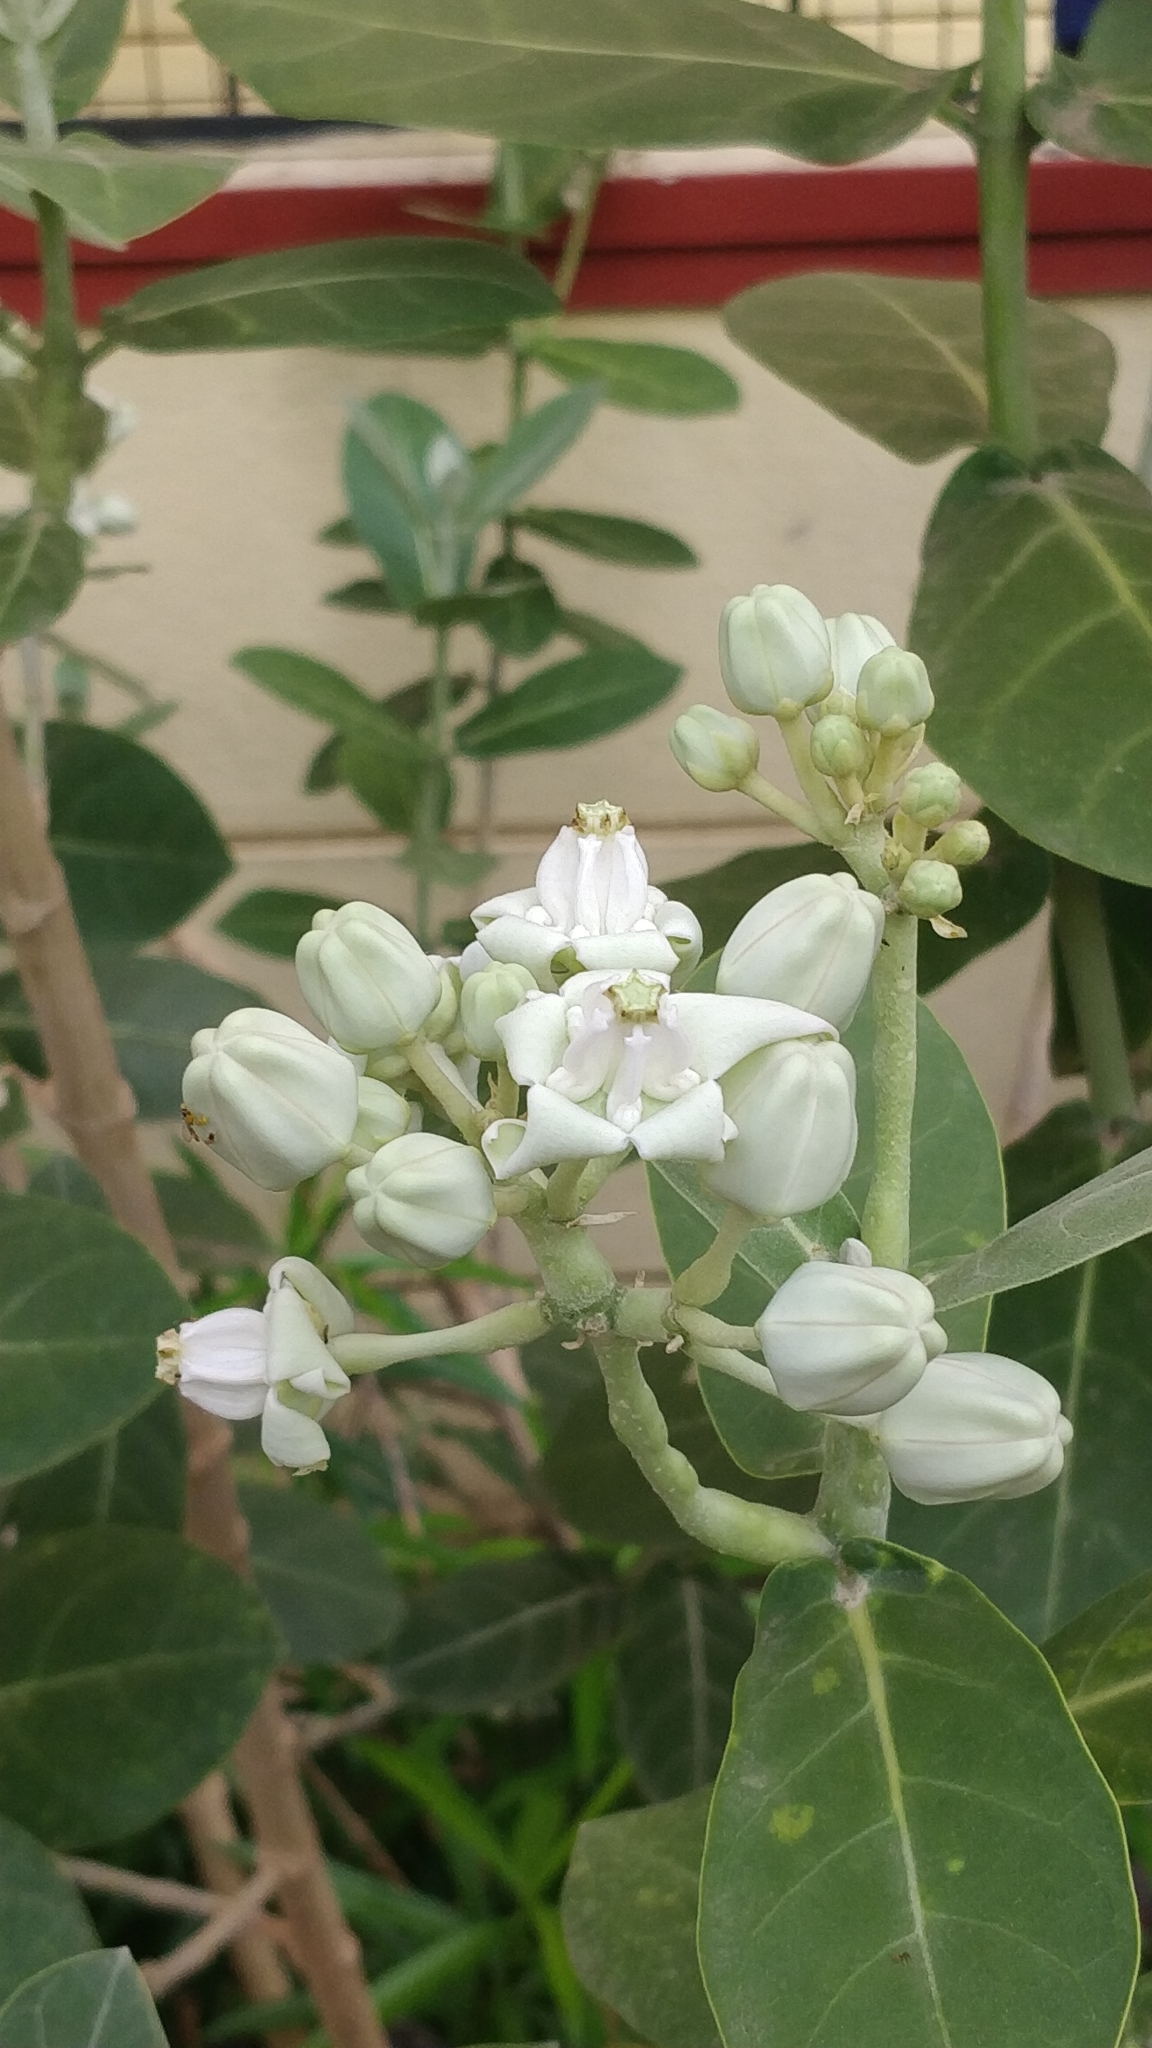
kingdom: Plantae
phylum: Tracheophyta
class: Magnoliopsida
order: Gentianales
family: Apocynaceae
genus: Calotropis
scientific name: Calotropis gigantea
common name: Crown flower
